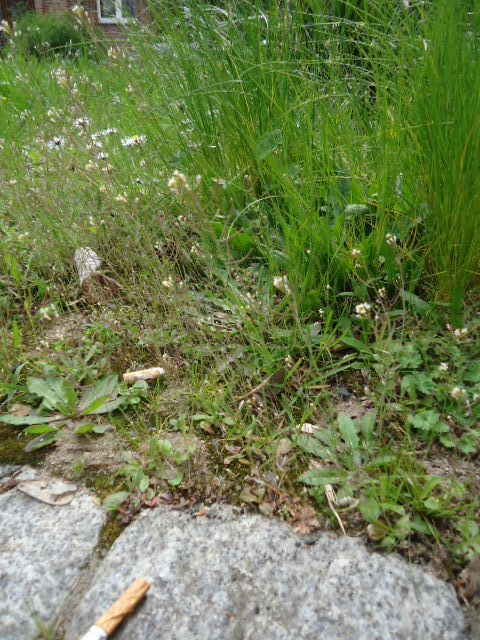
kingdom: Plantae
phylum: Tracheophyta
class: Magnoliopsida
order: Brassicales
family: Brassicaceae
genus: Arabidopsis
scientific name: Arabidopsis thaliana
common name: Thale cress
